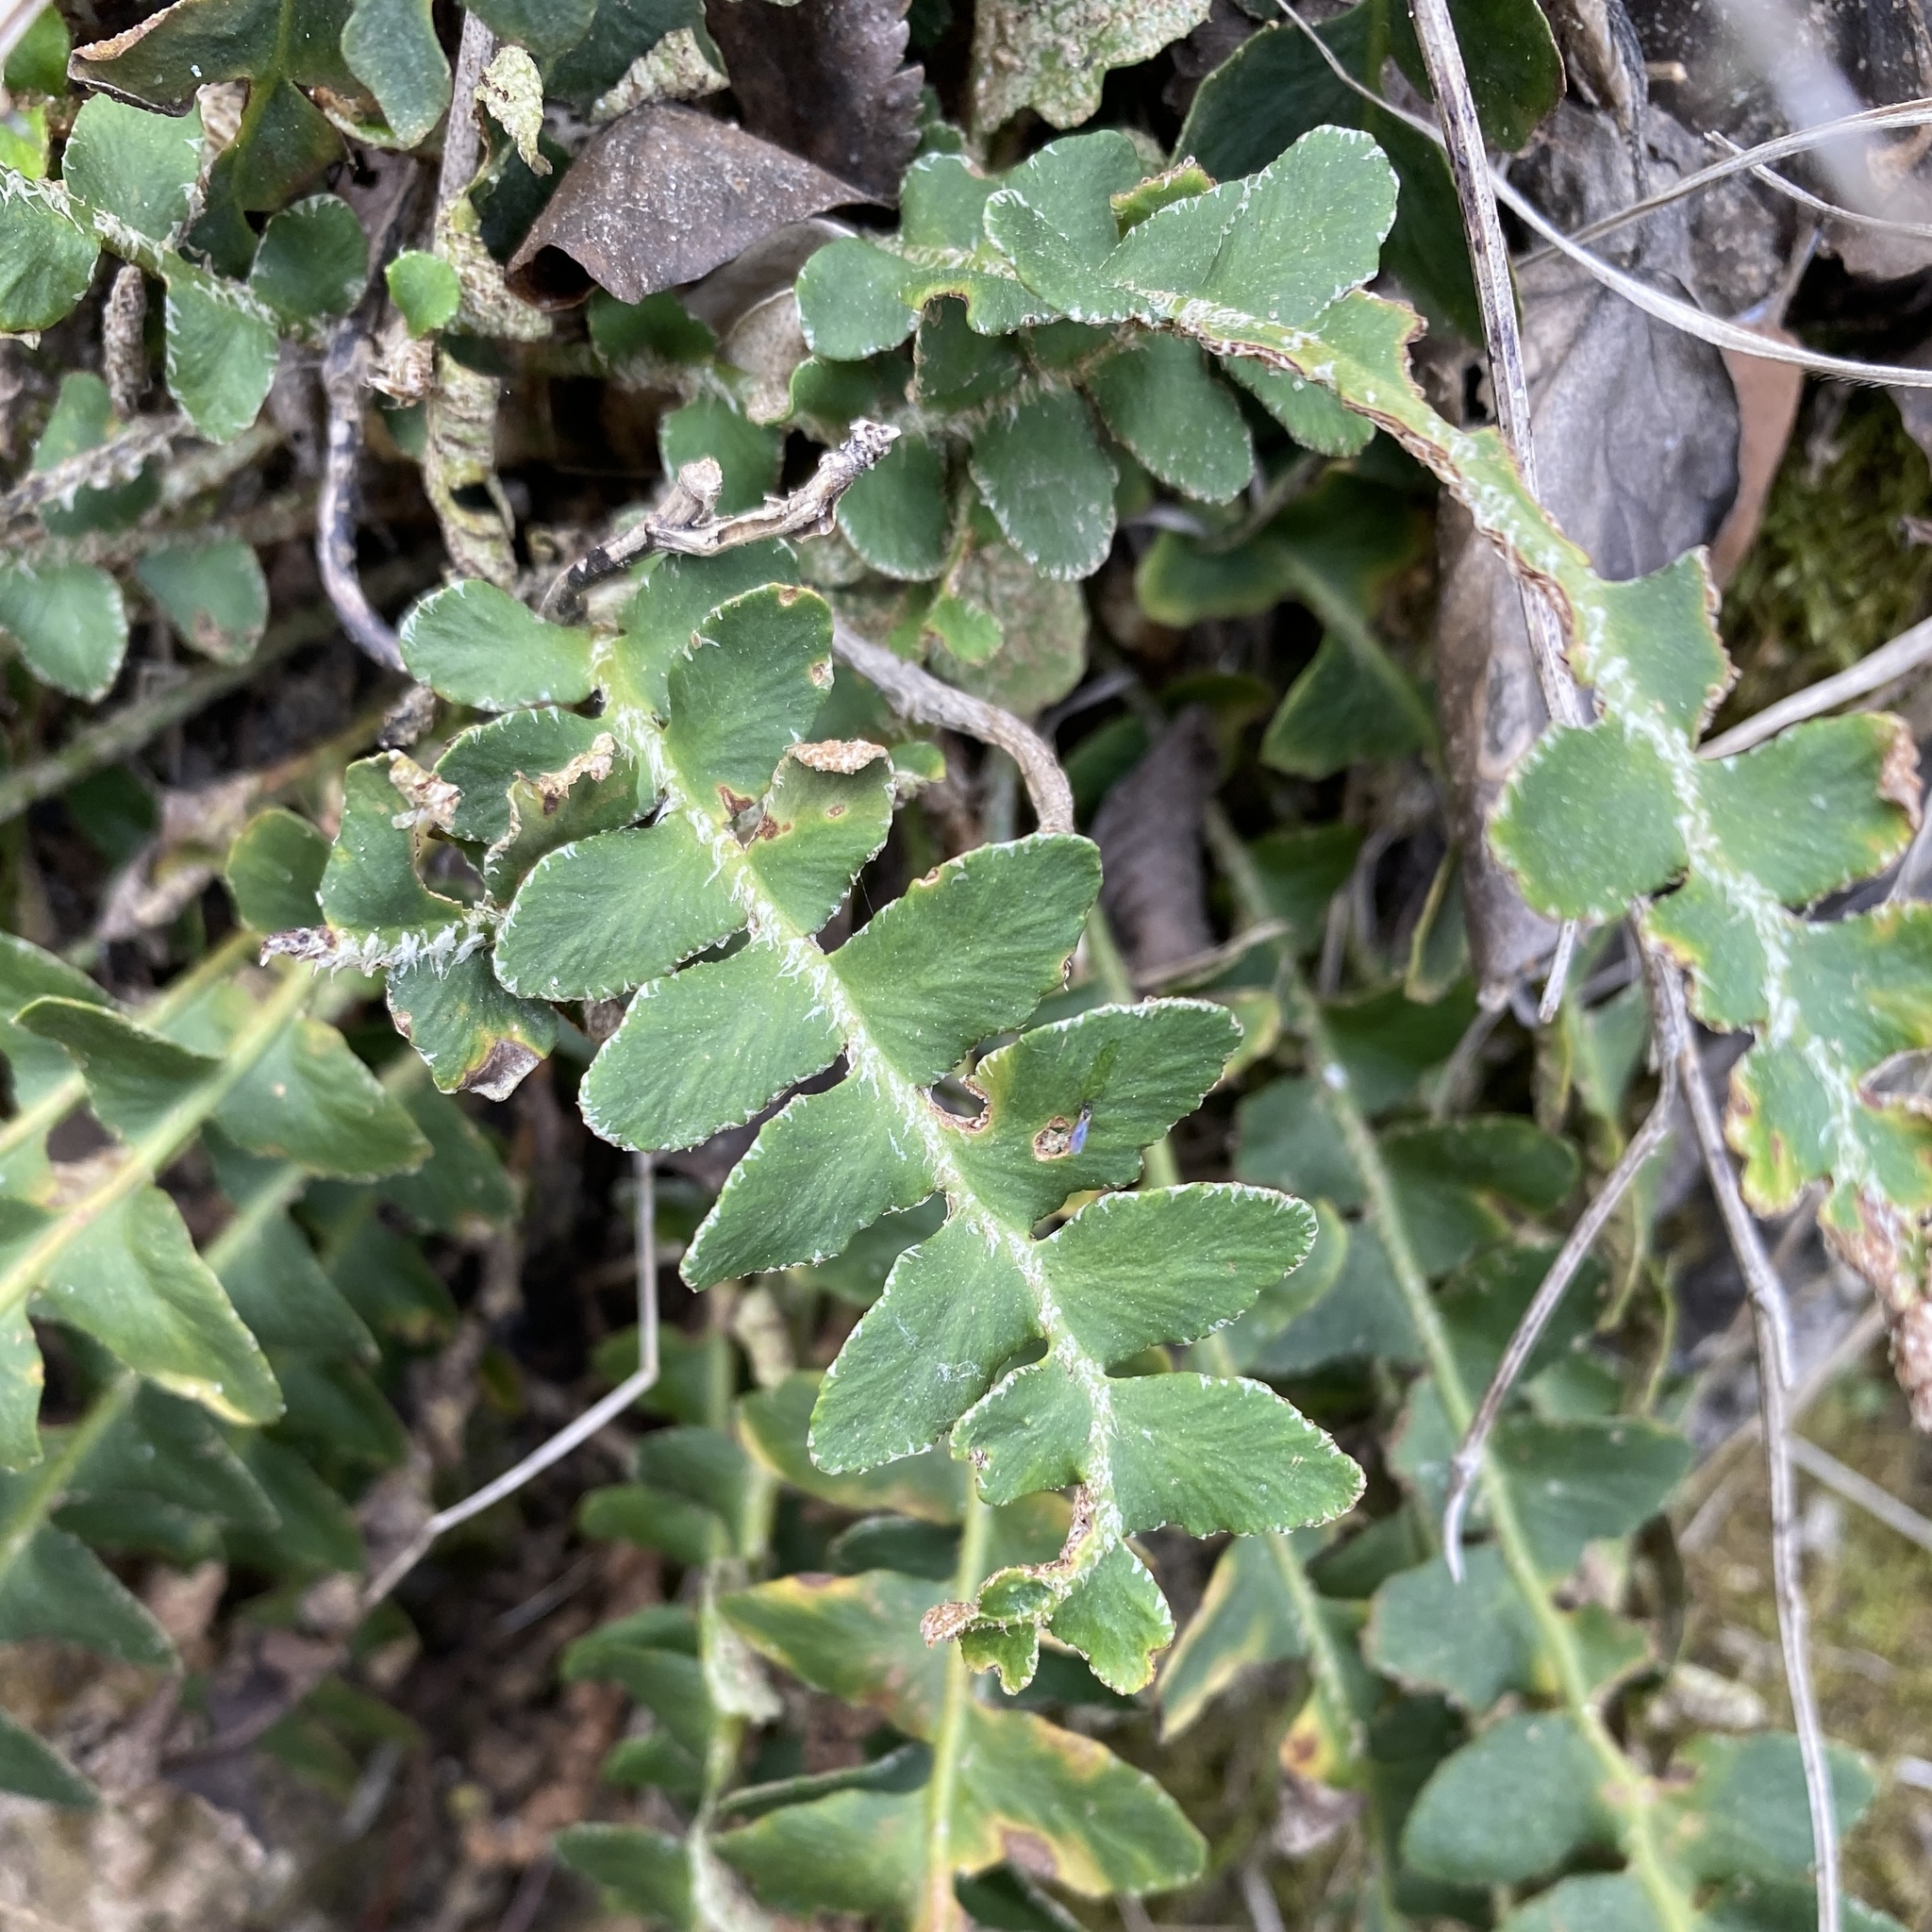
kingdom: Plantae
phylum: Tracheophyta
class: Polypodiopsida
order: Polypodiales
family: Aspleniaceae
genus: Asplenium
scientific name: Asplenium ceterach
